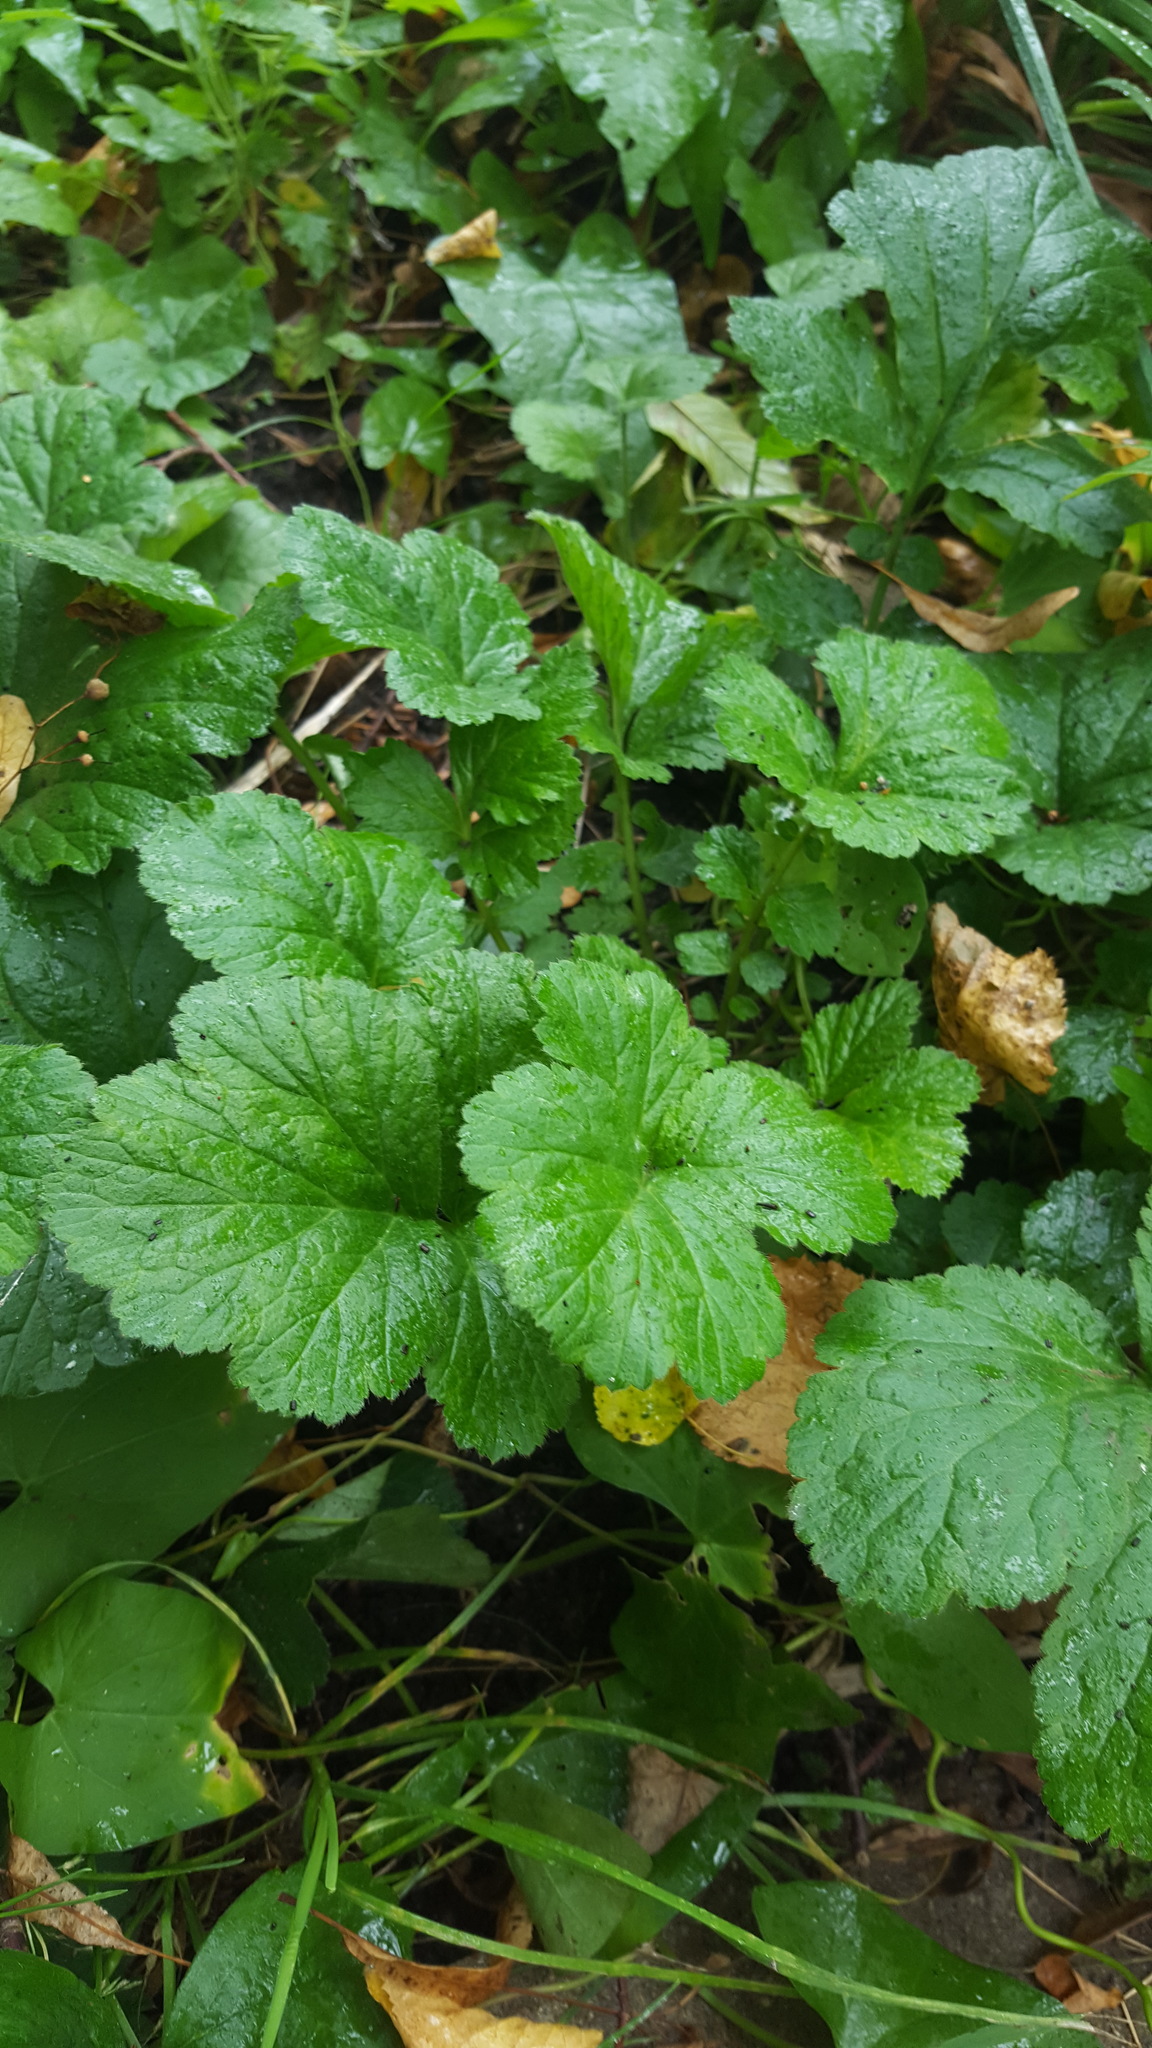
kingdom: Plantae
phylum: Tracheophyta
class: Magnoliopsida
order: Rosales
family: Rosaceae
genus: Geum
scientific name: Geum urbanum
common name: Wood avens
